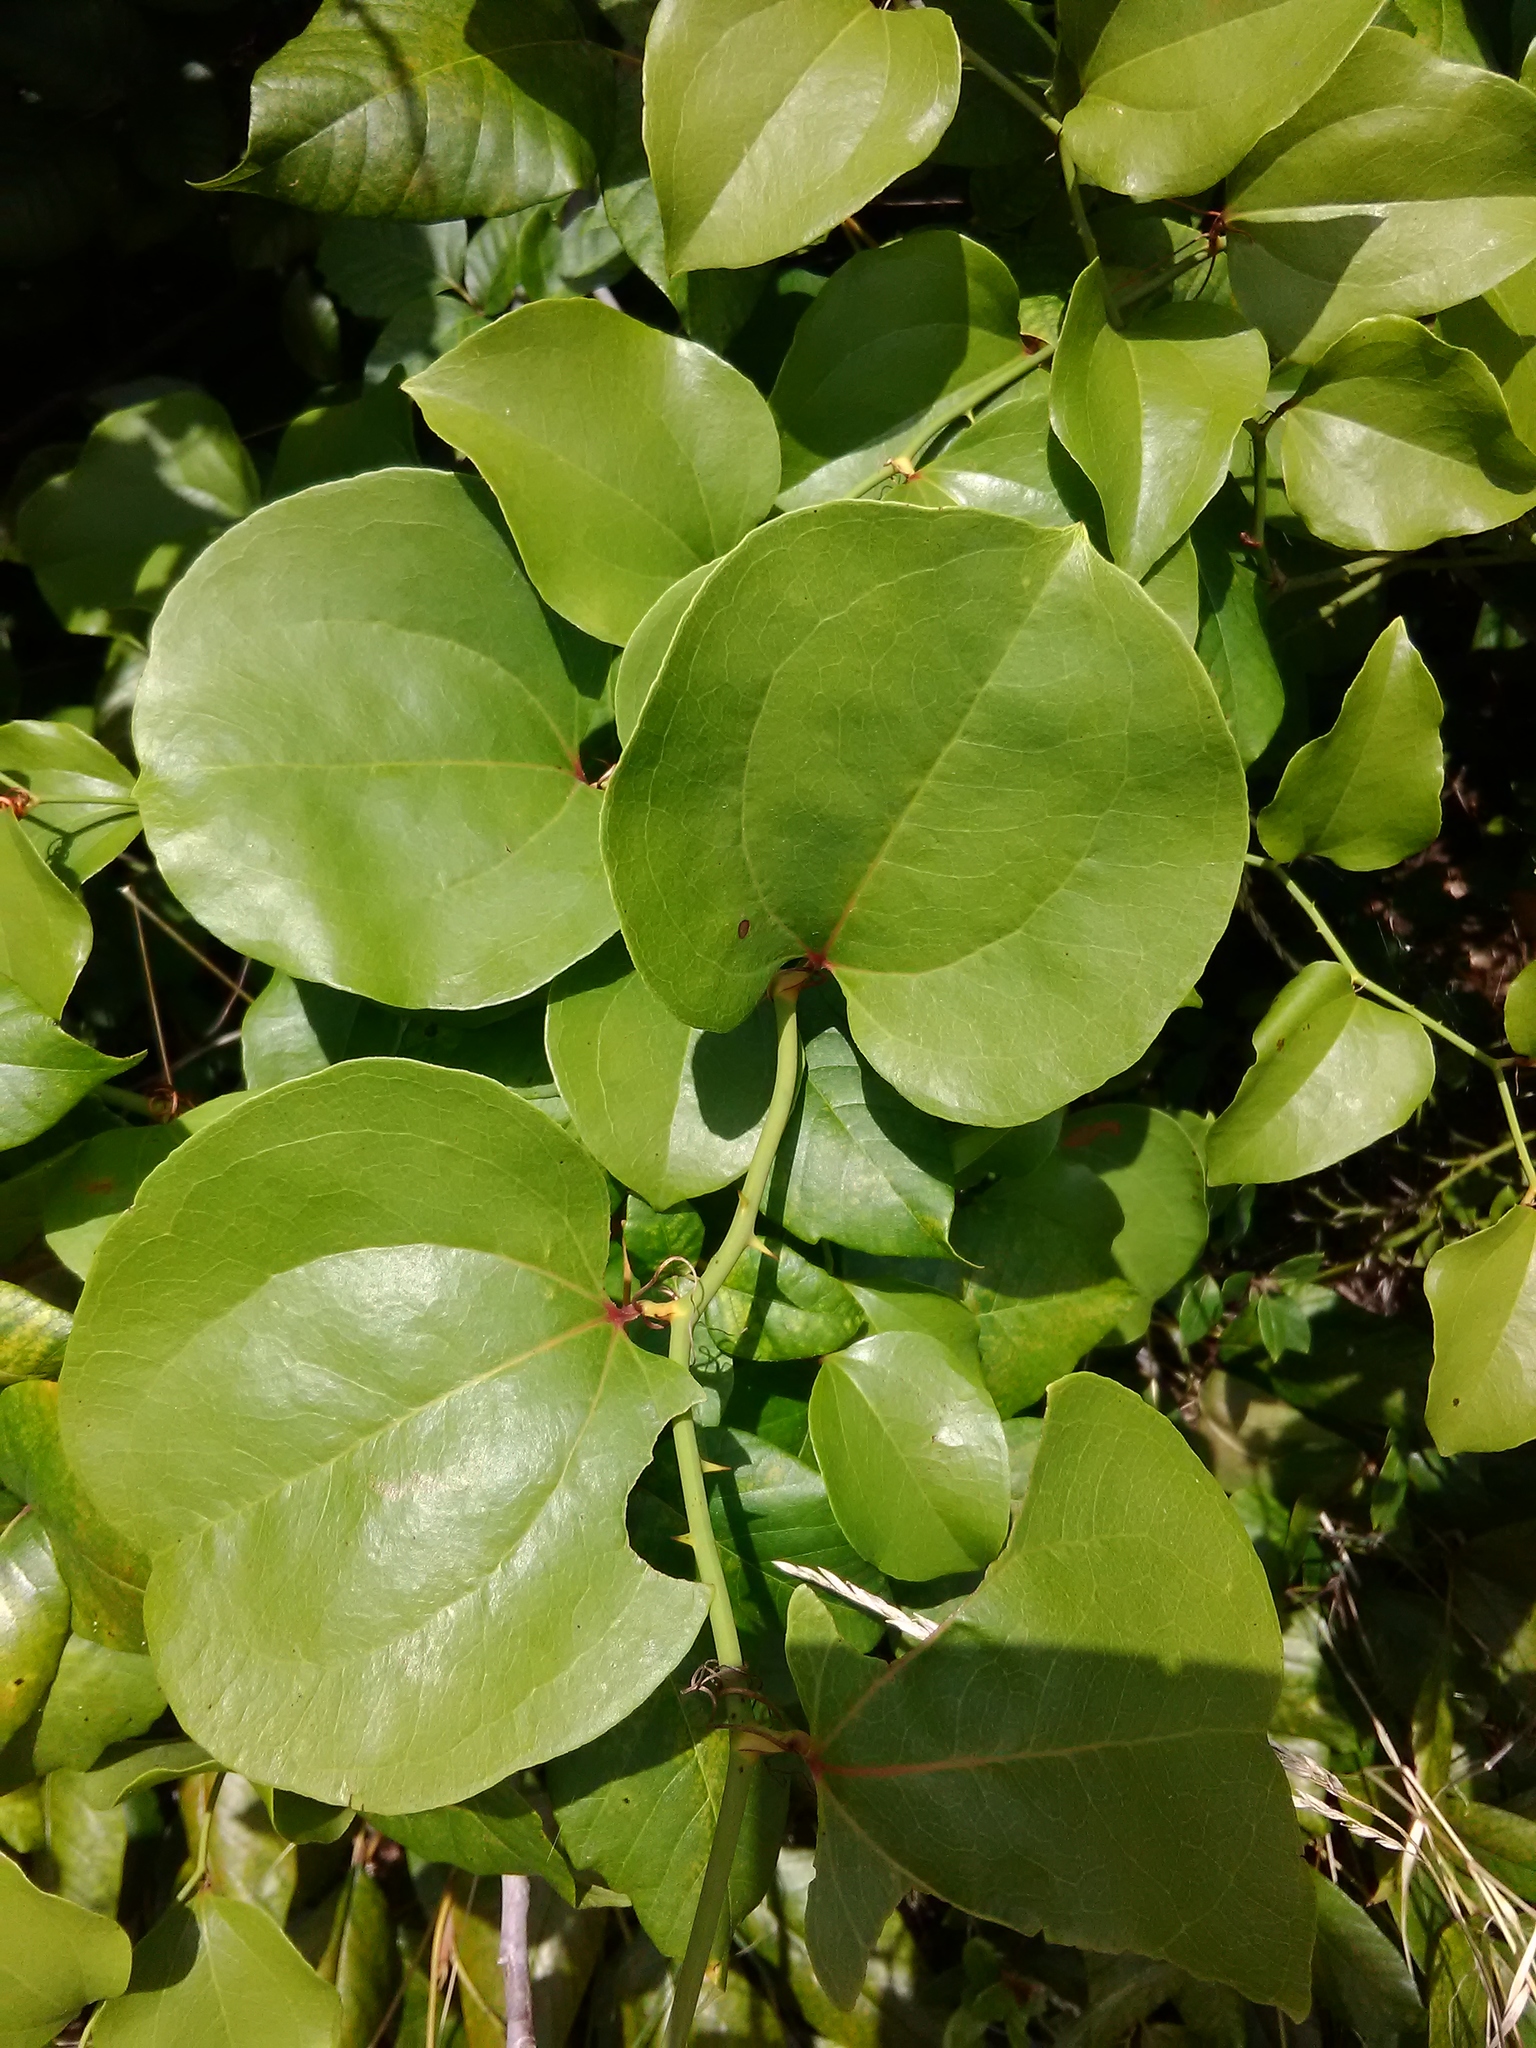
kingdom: Plantae
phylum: Tracheophyta
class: Liliopsida
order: Liliales
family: Smilacaceae
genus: Smilax
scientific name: Smilax rotundifolia
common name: Bullbriar
